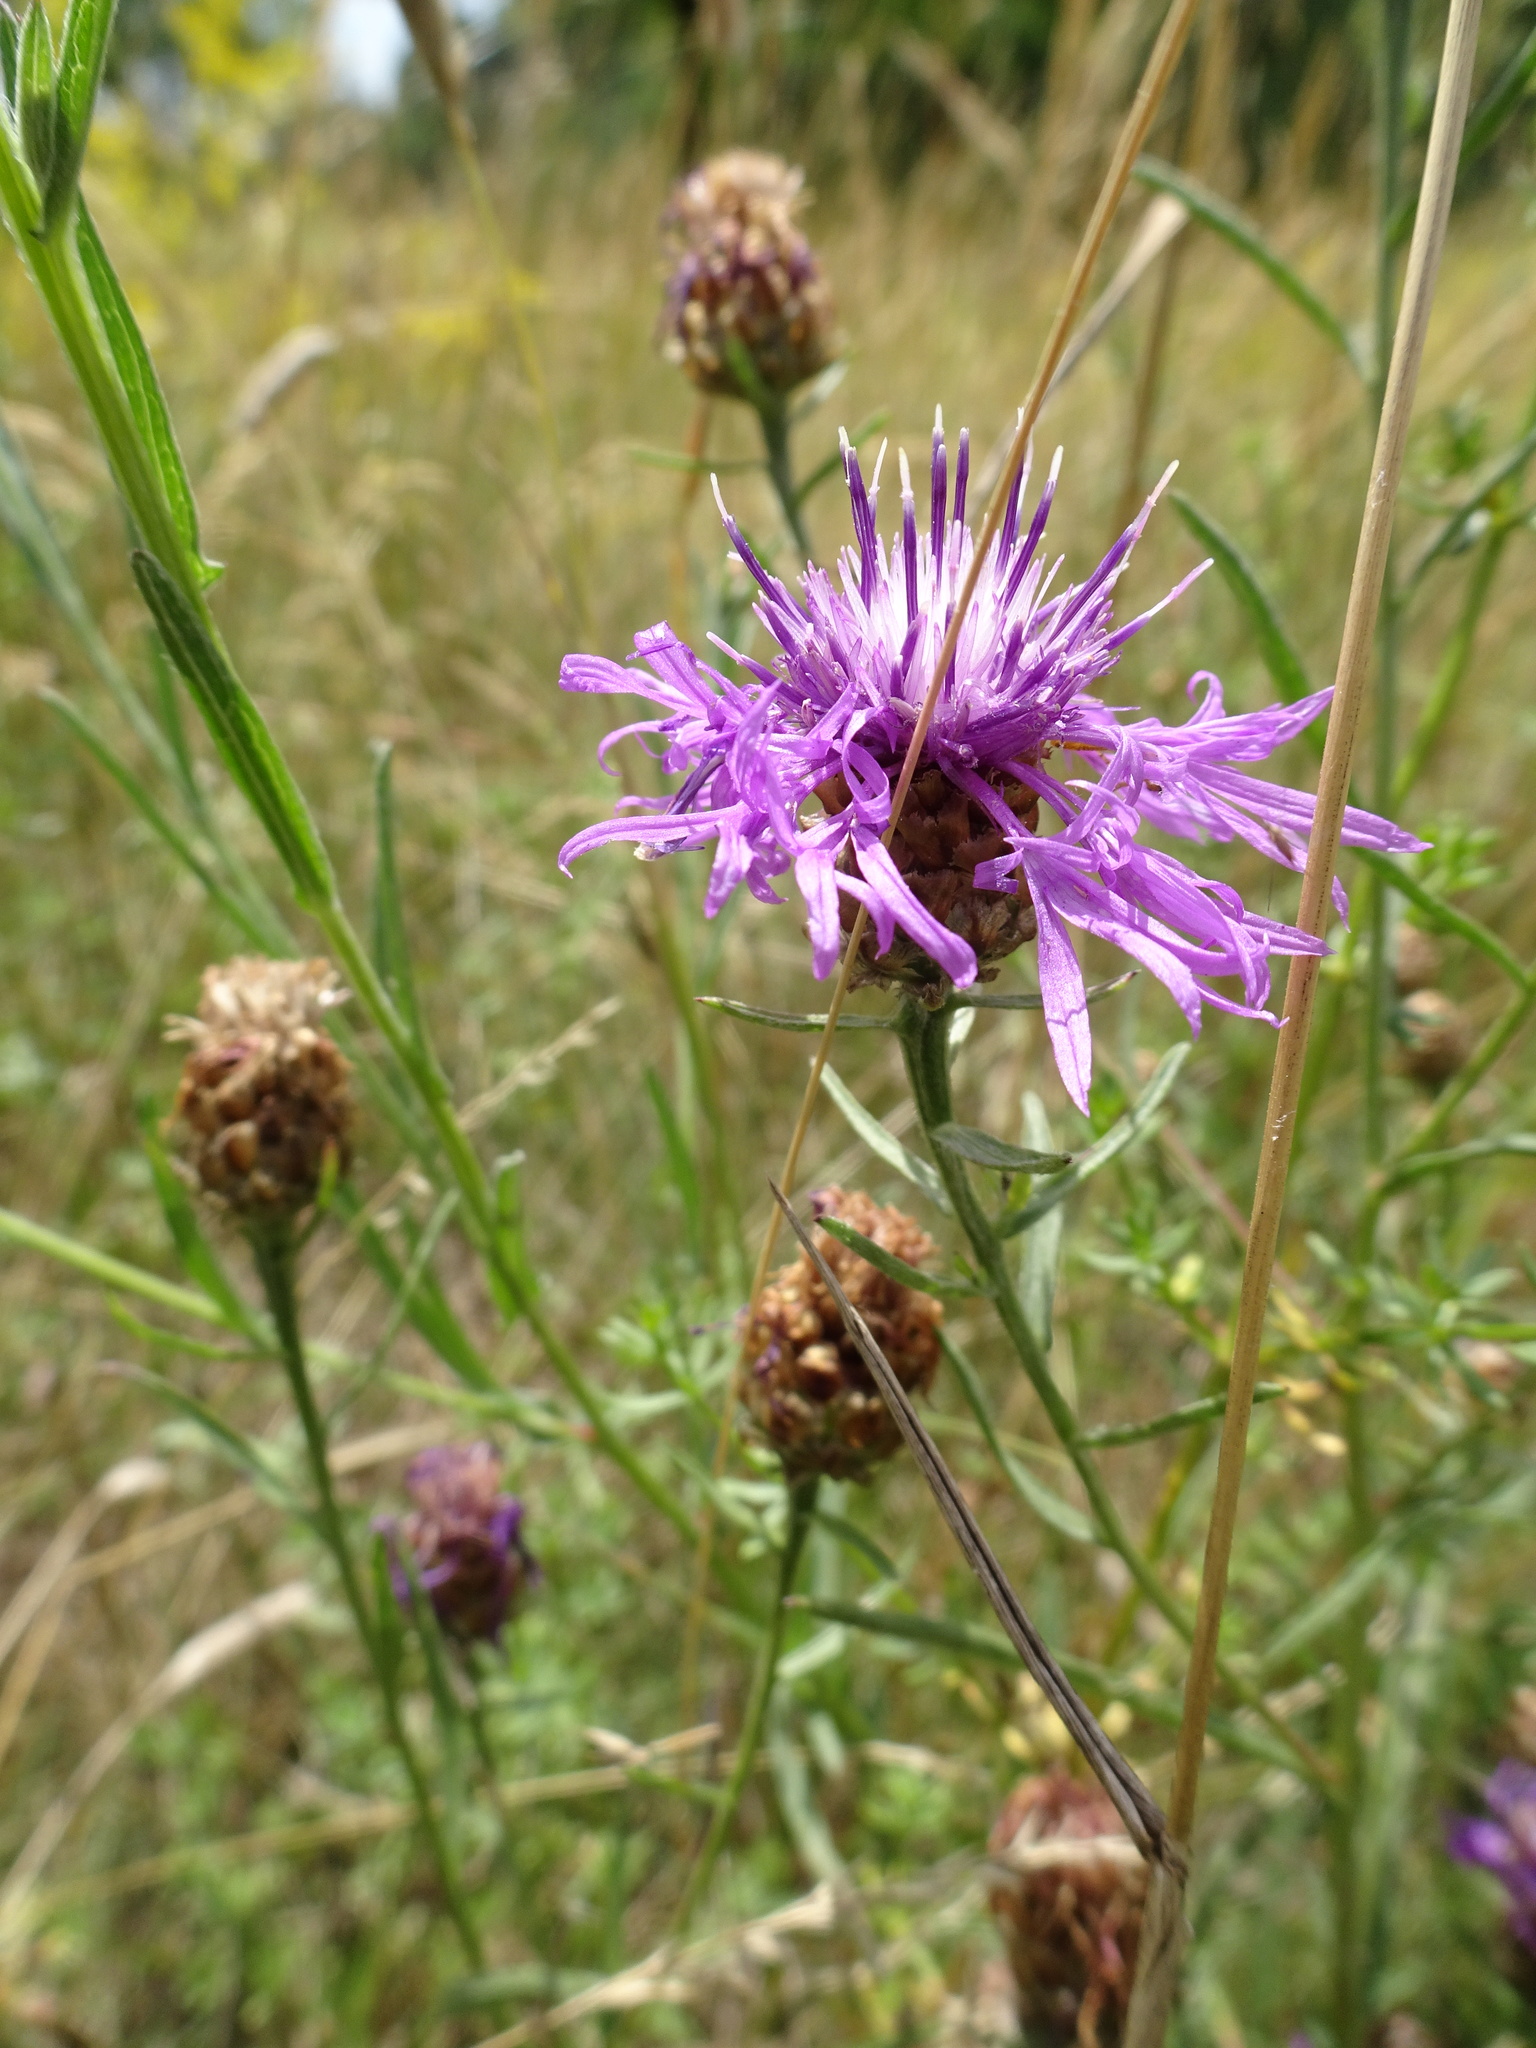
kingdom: Plantae
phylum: Tracheophyta
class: Magnoliopsida
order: Asterales
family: Asteraceae
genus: Centaurea
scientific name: Centaurea jacea
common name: Brown knapweed
